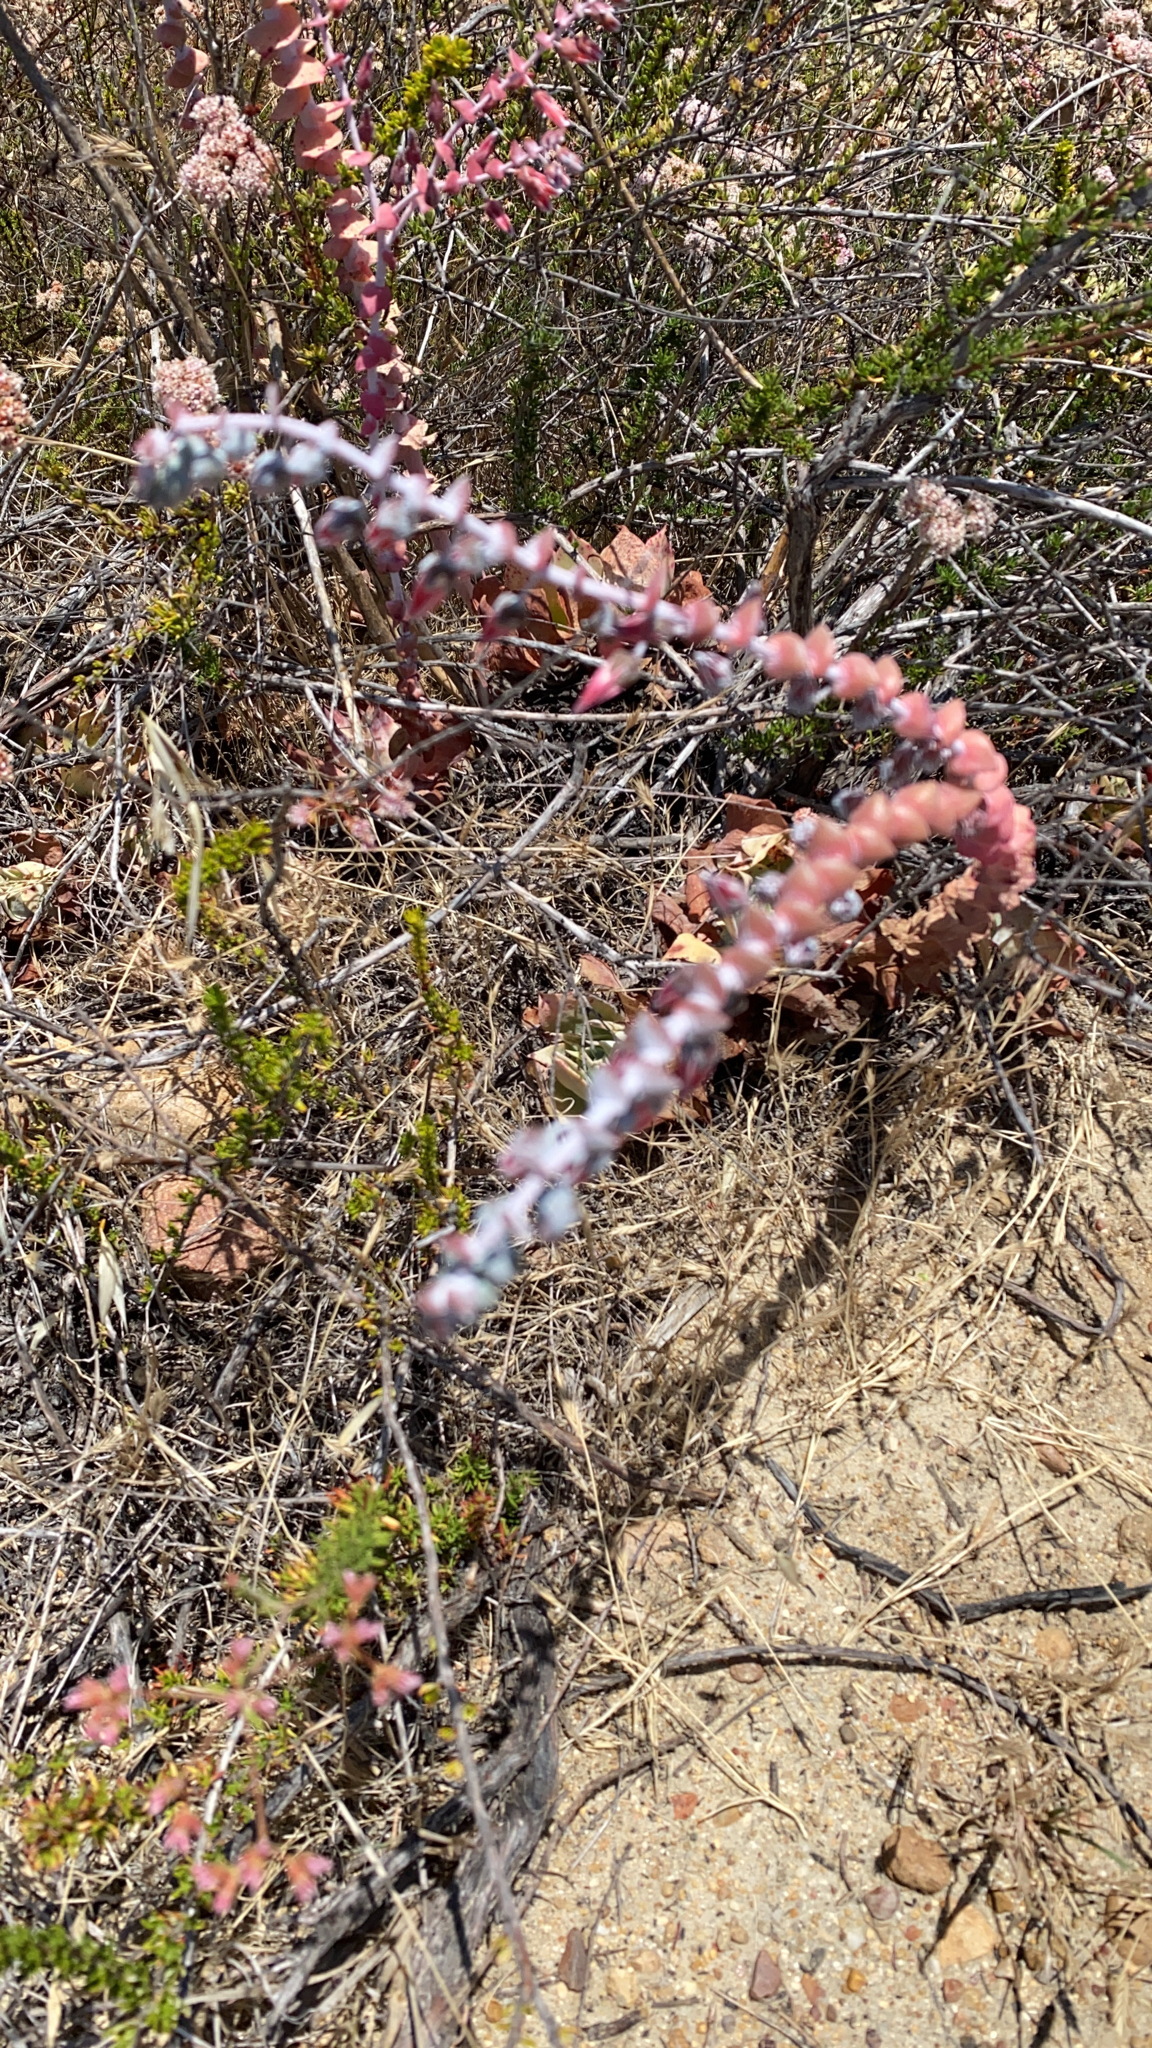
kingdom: Plantae
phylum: Tracheophyta
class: Magnoliopsida
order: Saxifragales
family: Crassulaceae
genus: Dudleya
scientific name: Dudleya pulverulenta
